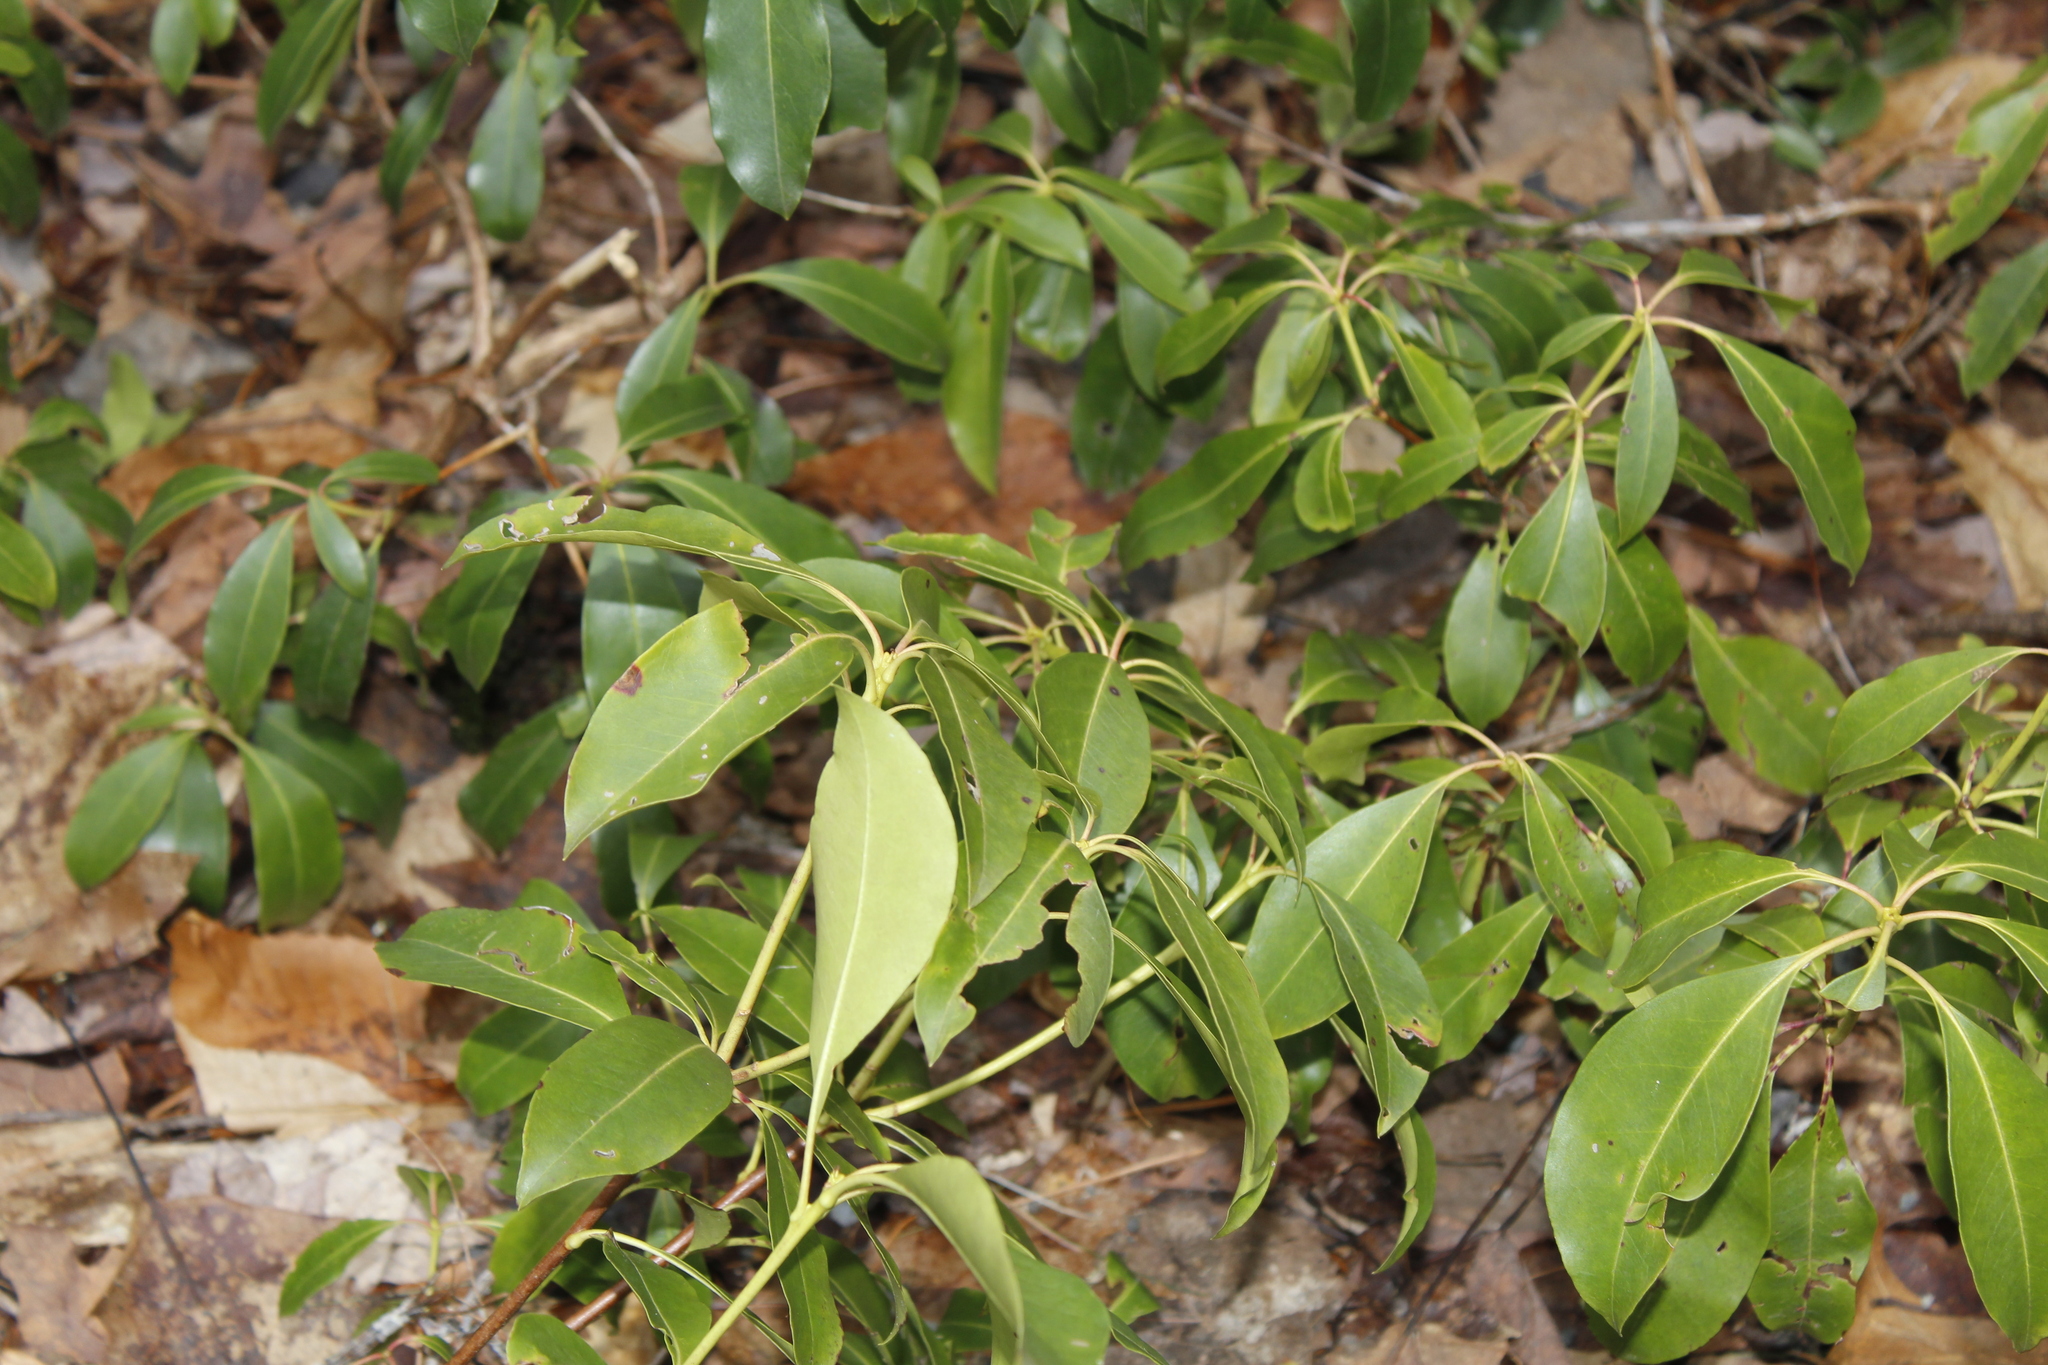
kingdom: Plantae
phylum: Tracheophyta
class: Magnoliopsida
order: Ericales
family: Ericaceae
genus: Kalmia
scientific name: Kalmia latifolia
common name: Mountain-laurel
